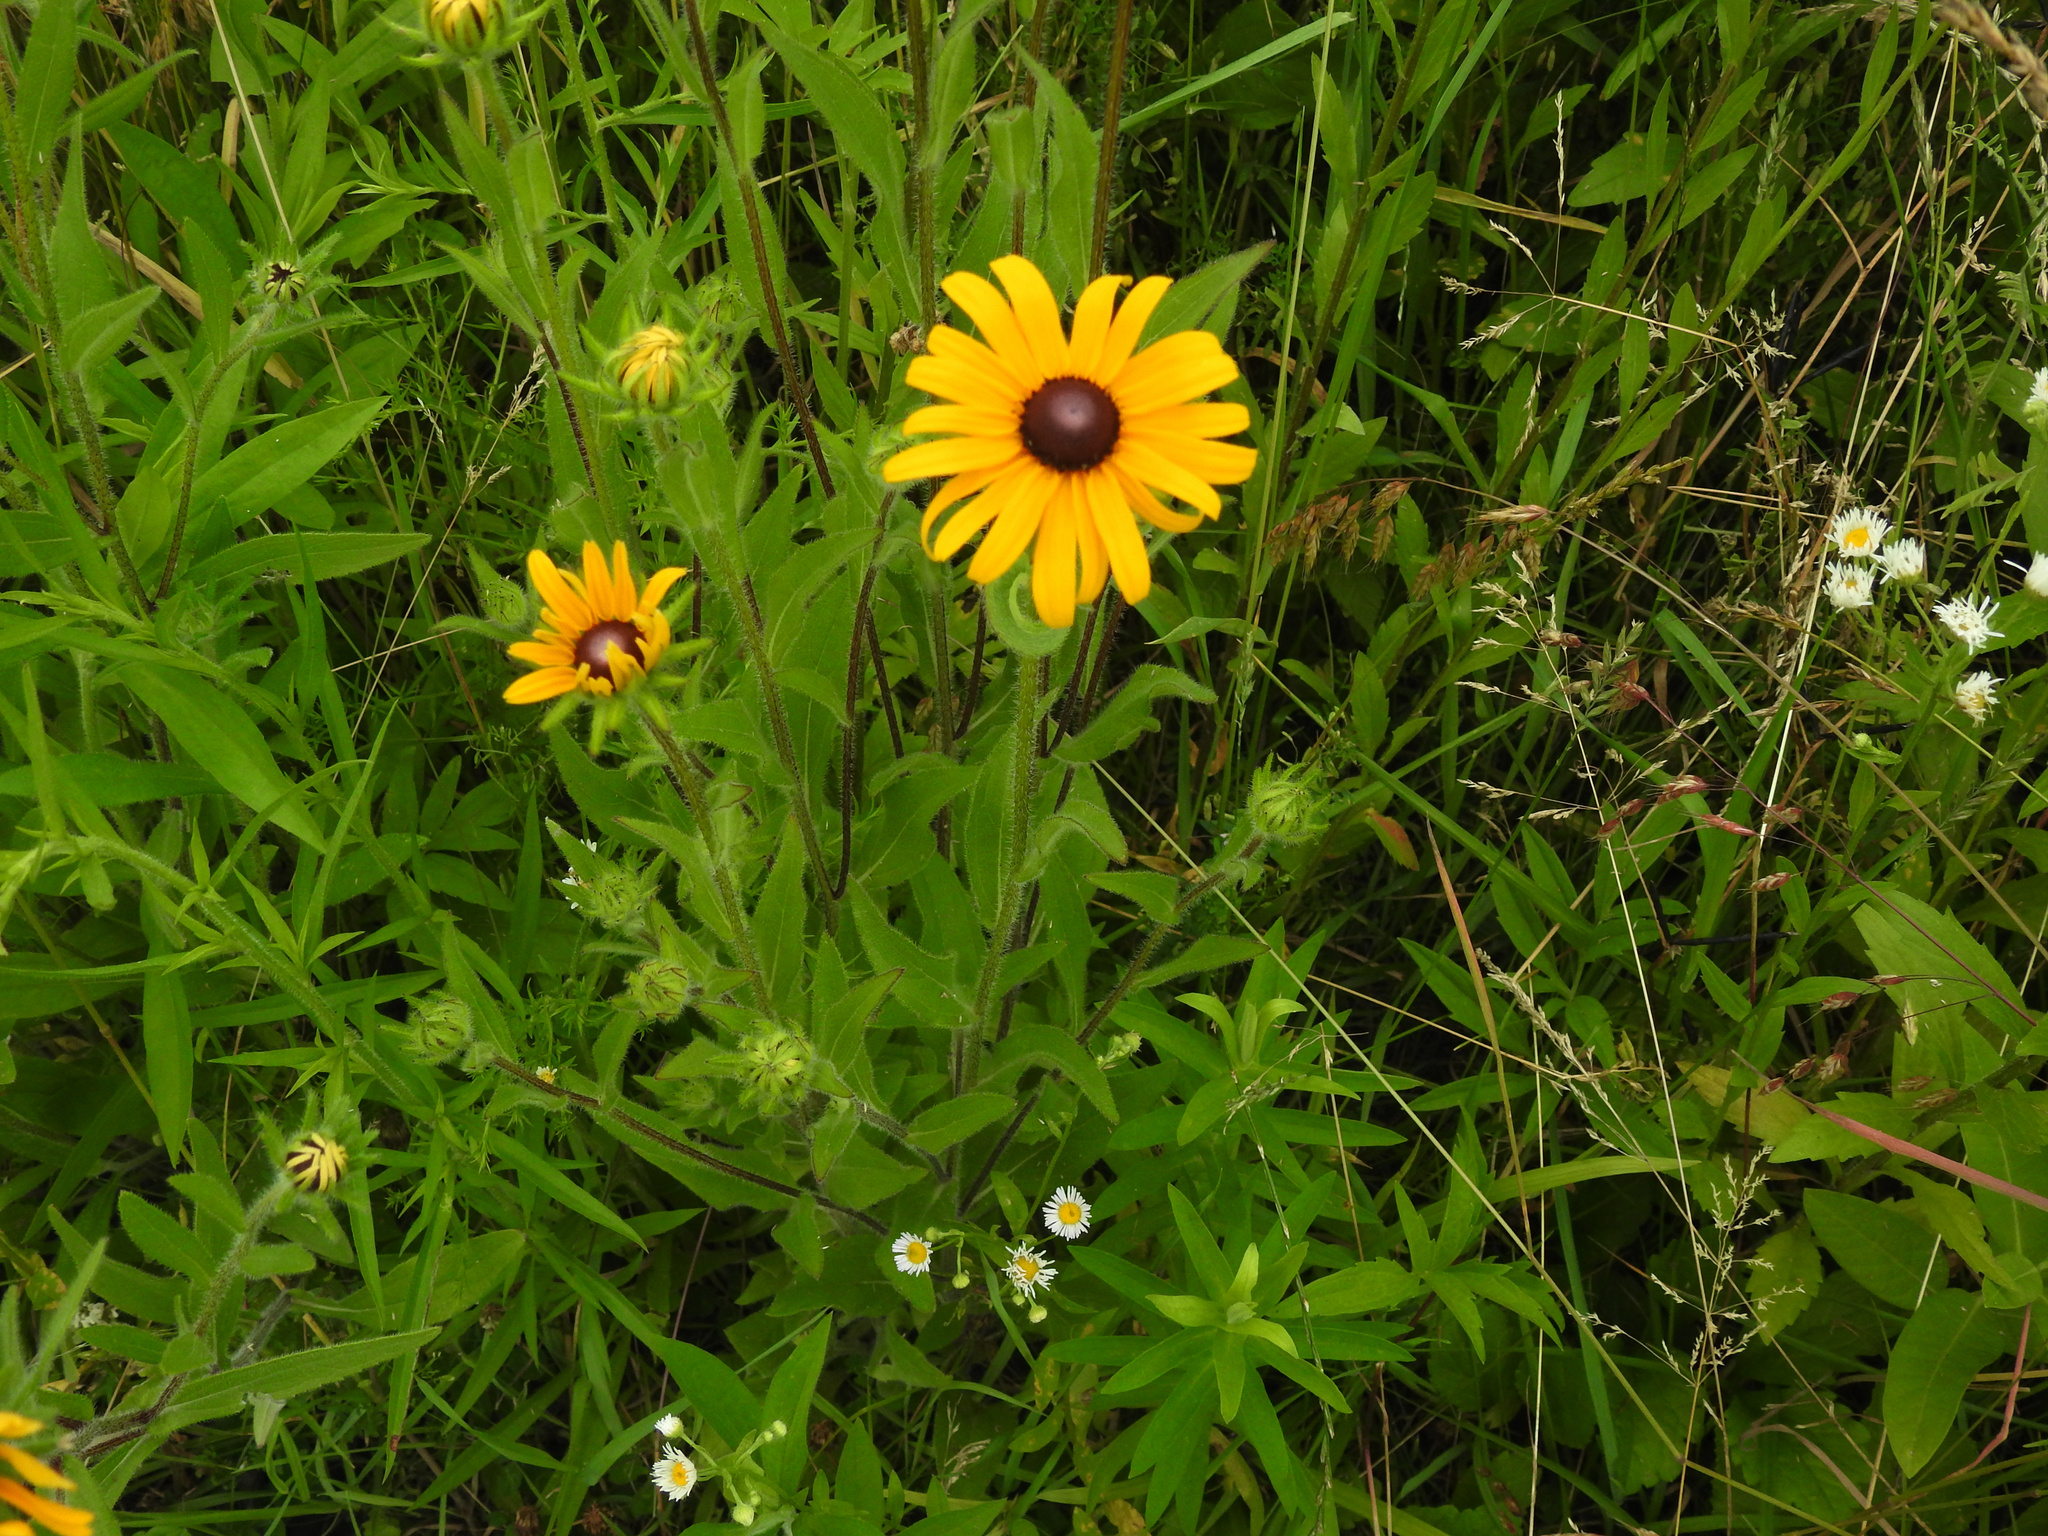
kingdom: Plantae
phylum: Tracheophyta
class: Magnoliopsida
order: Asterales
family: Asteraceae
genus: Rudbeckia
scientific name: Rudbeckia hirta
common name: Black-eyed-susan
